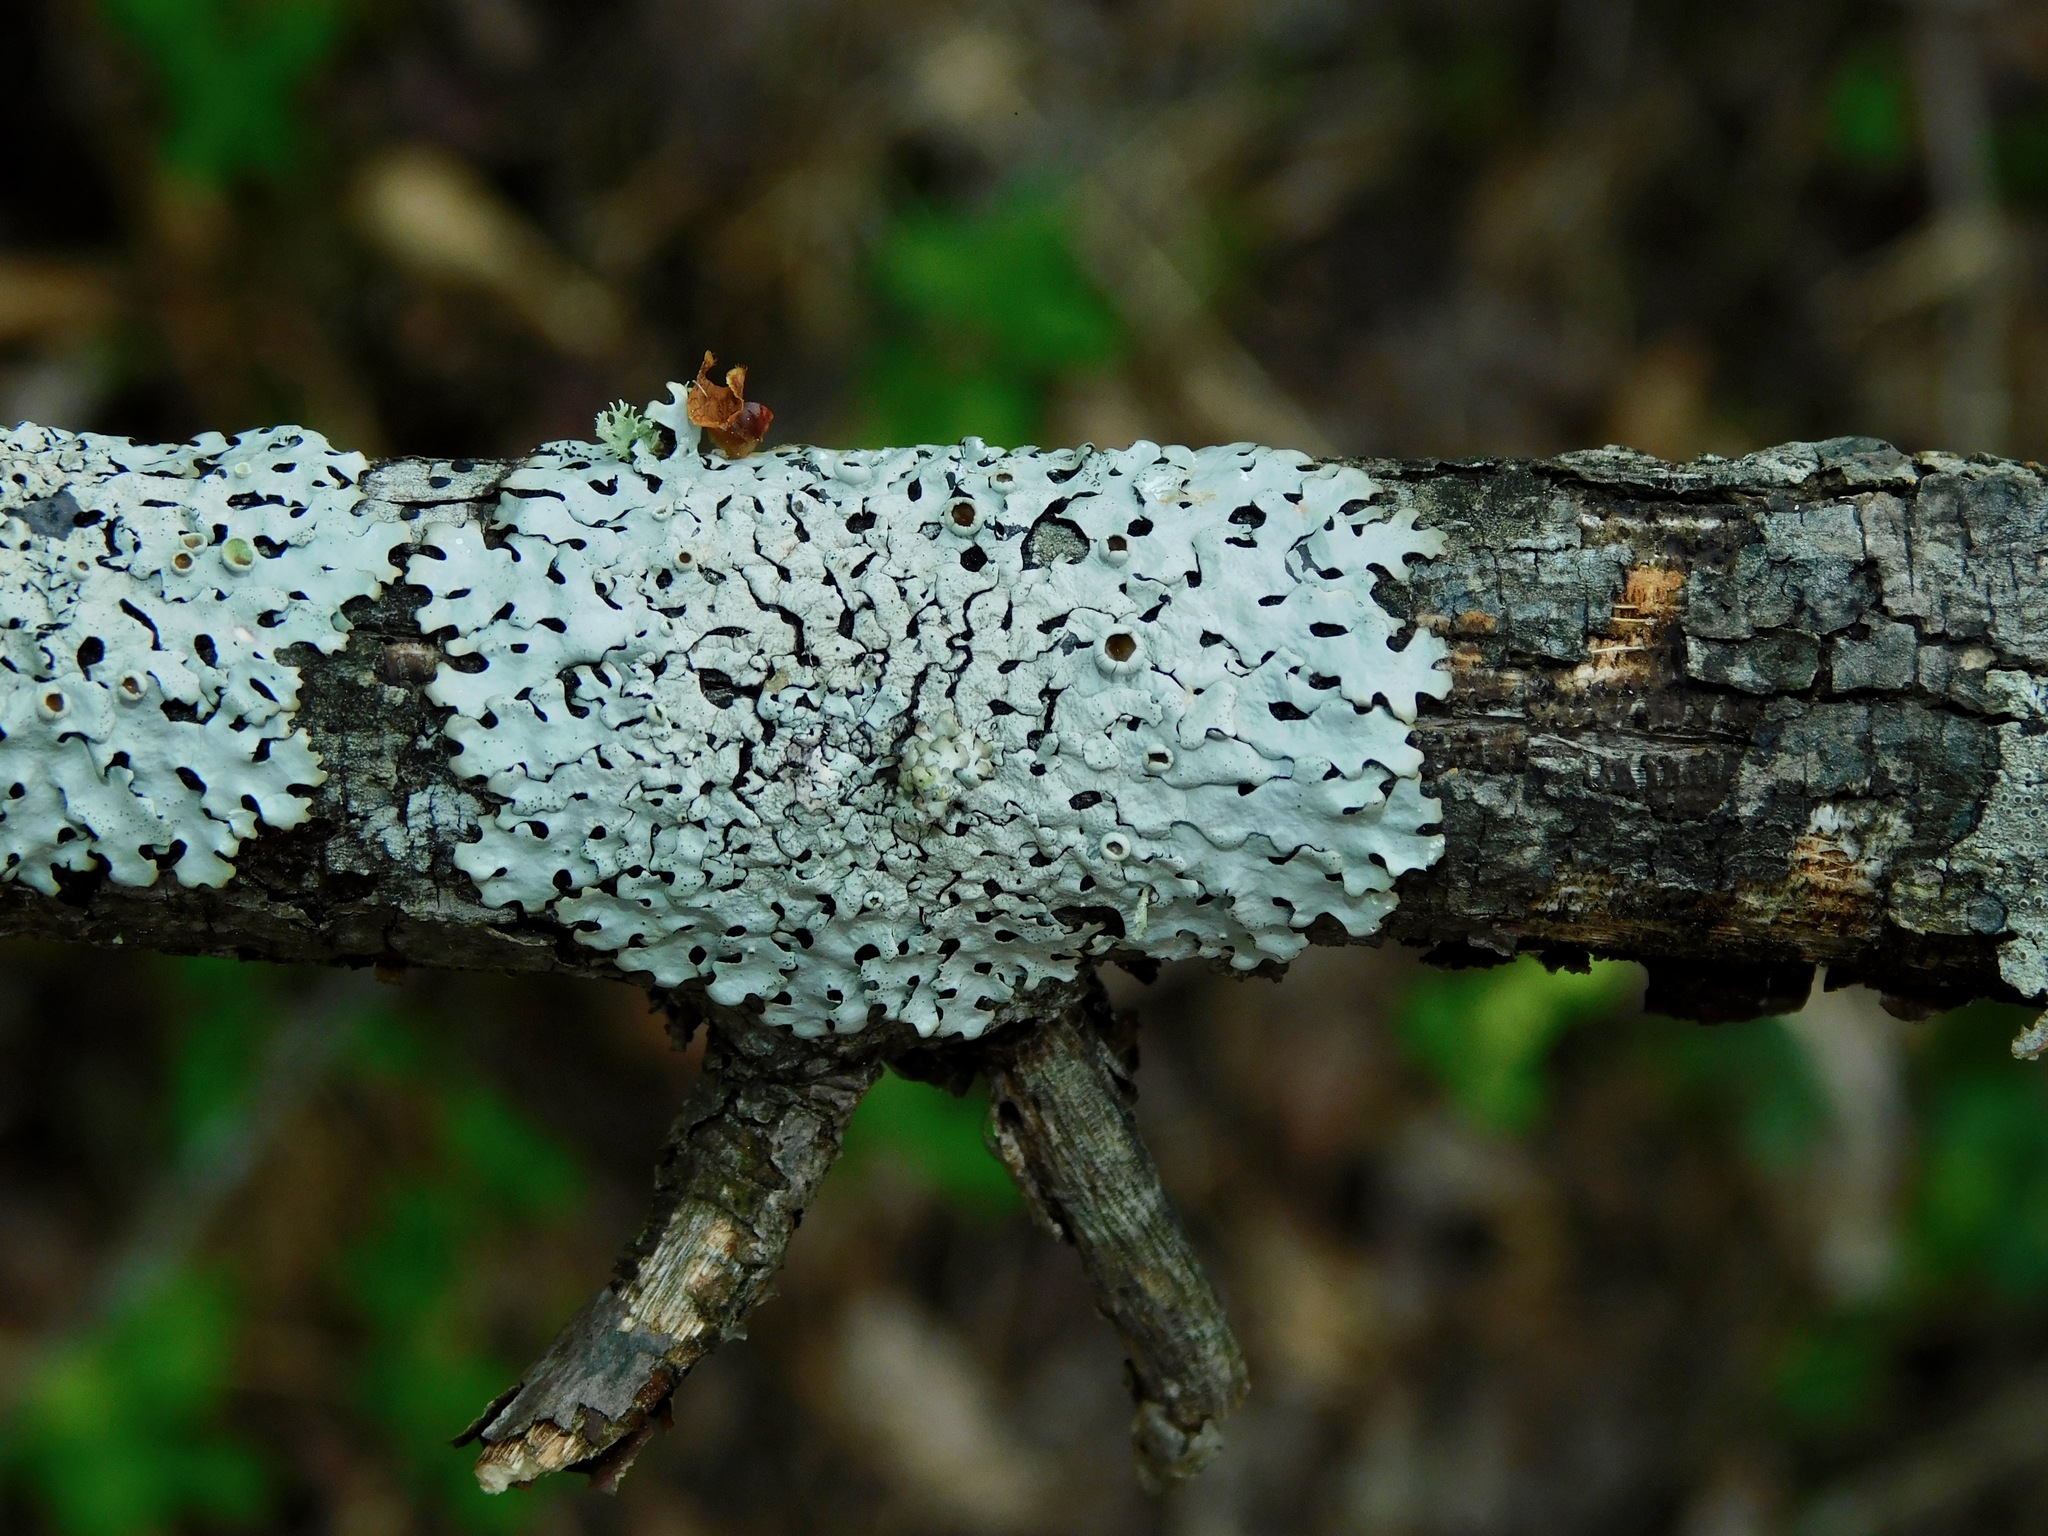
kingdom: Fungi
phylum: Ascomycota
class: Lecanoromycetes
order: Lecanorales
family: Parmeliaceae
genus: Hypotrachyna
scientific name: Hypotrachyna livida
